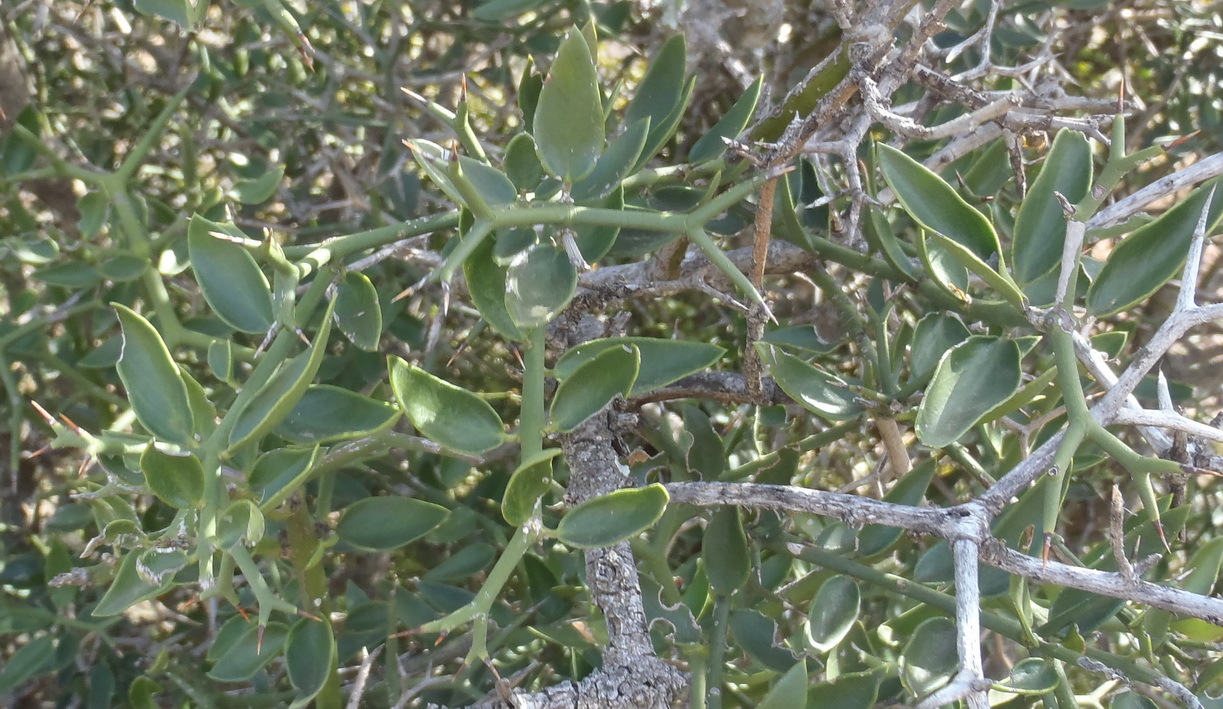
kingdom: Plantae
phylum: Tracheophyta
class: Magnoliopsida
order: Gentianales
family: Apocynaceae
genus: Carissa
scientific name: Carissa haematocarpa
